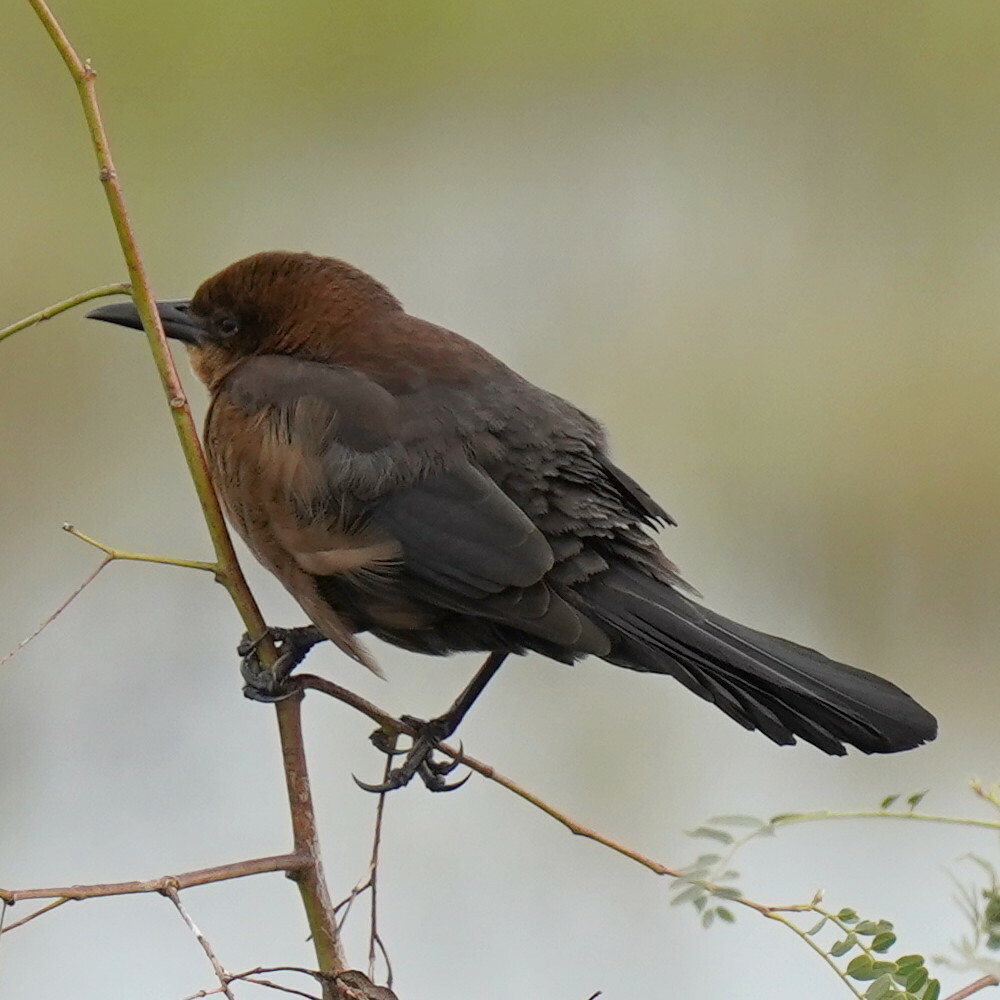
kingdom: Animalia
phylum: Chordata
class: Aves
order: Passeriformes
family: Icteridae
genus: Quiscalus
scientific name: Quiscalus major
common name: Boat-tailed grackle
